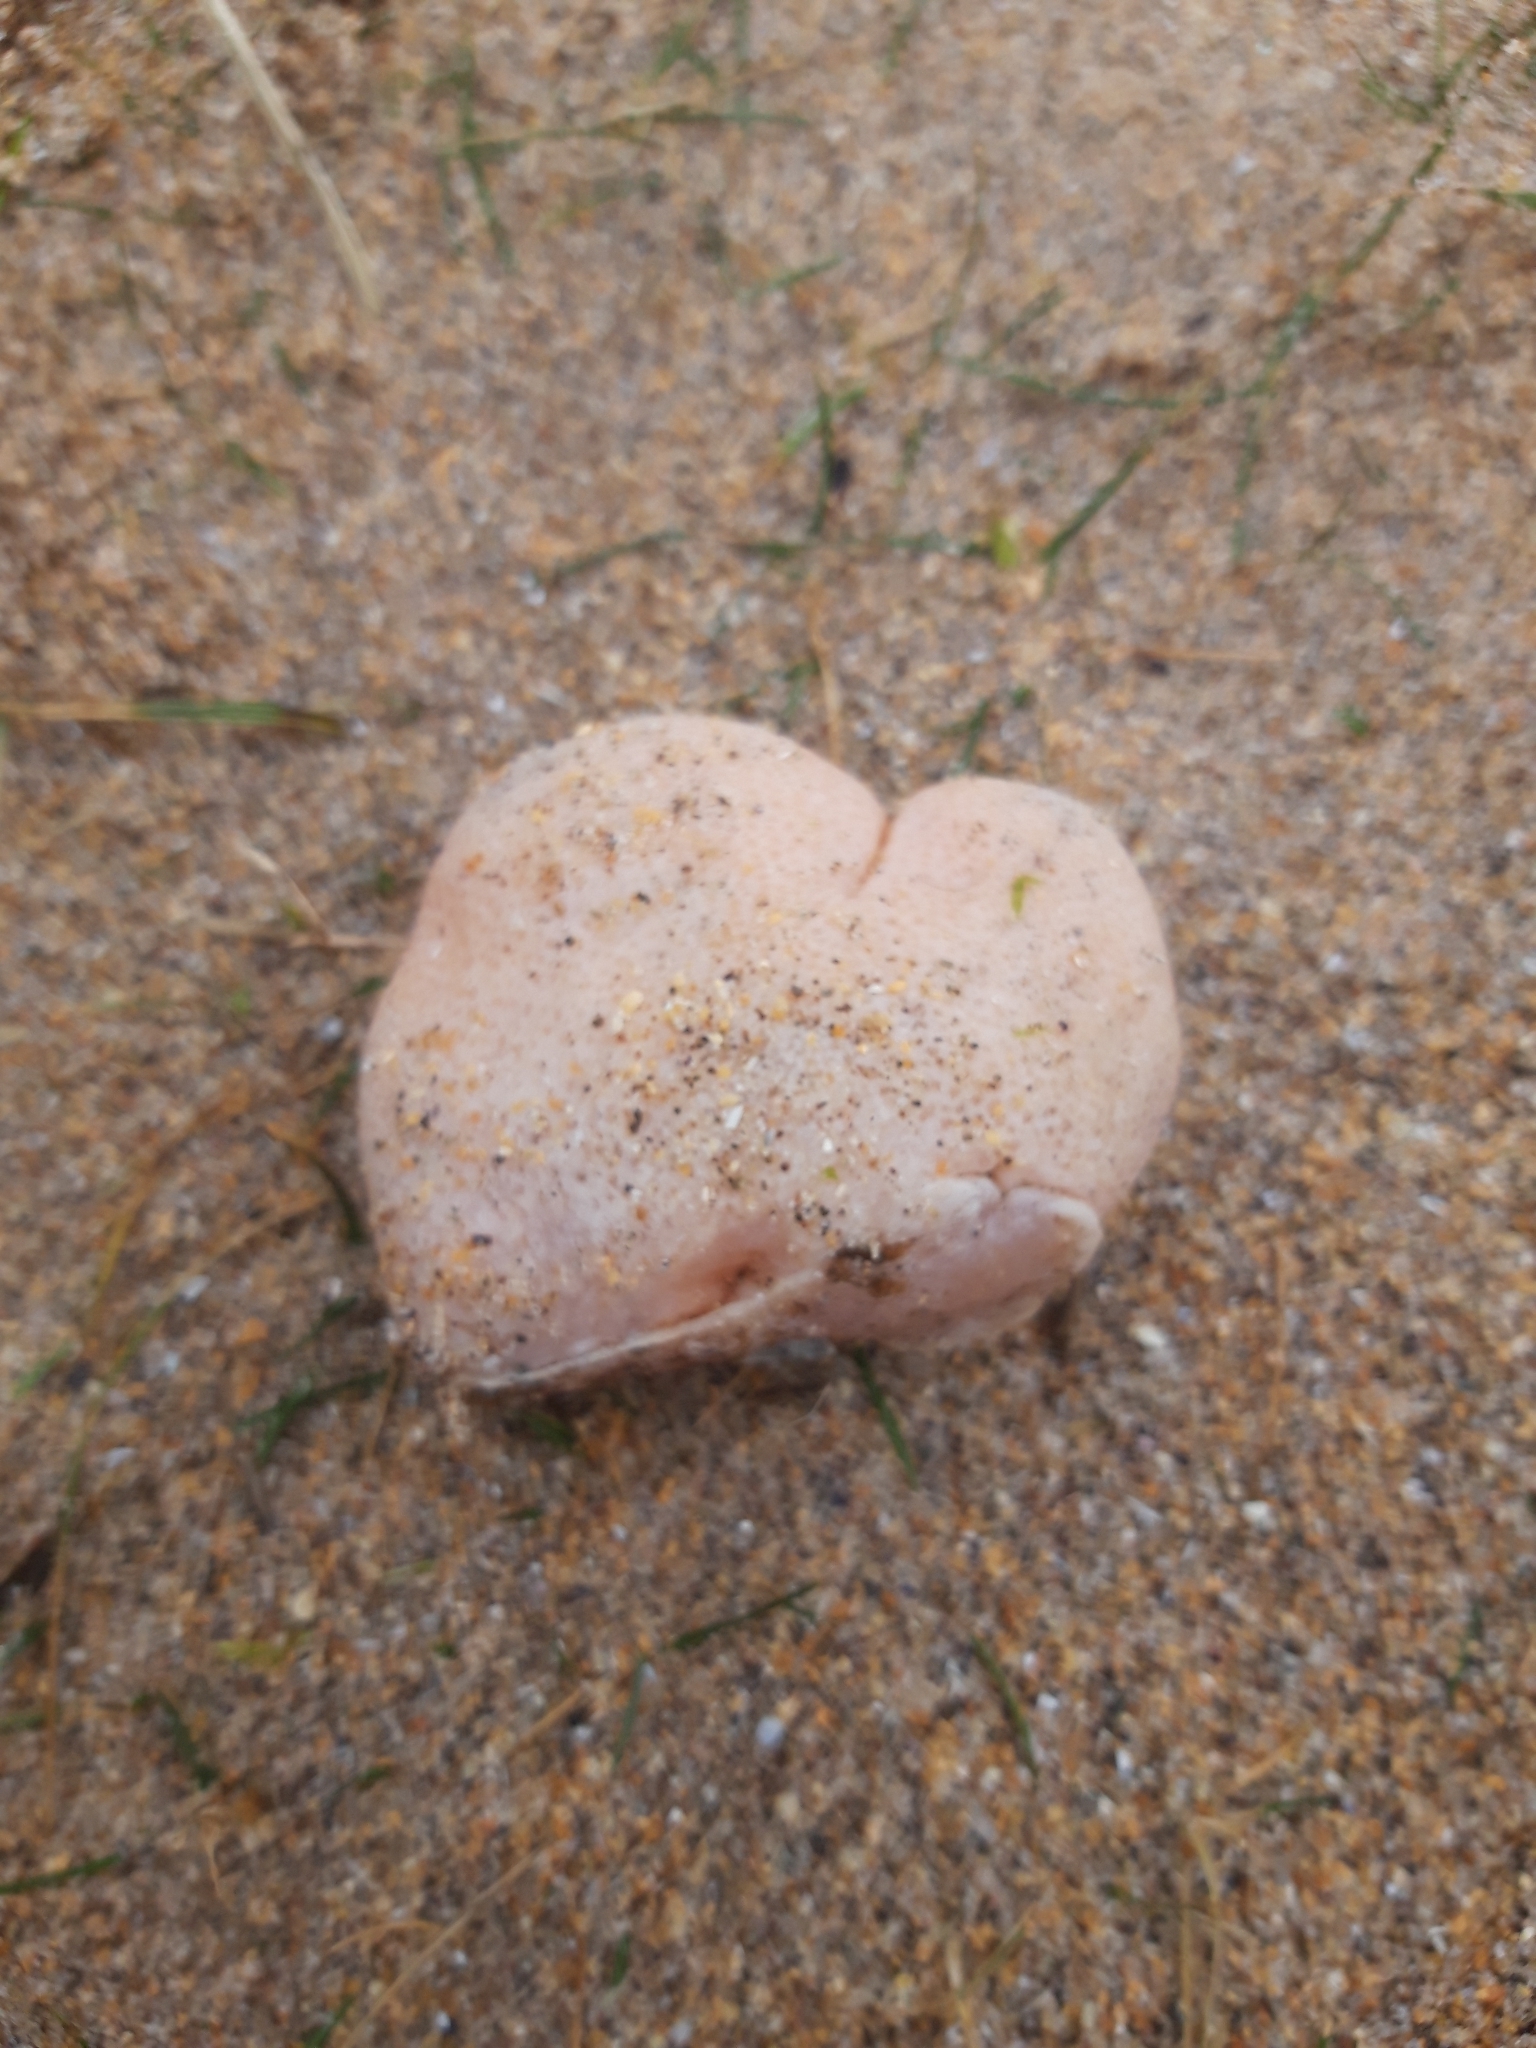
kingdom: Animalia
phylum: Cnidaria
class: Anthozoa
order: Malacalcyonacea
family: Alcyoniidae
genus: Alcyonium
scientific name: Alcyonium digitatum
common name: Dead man's fingers
